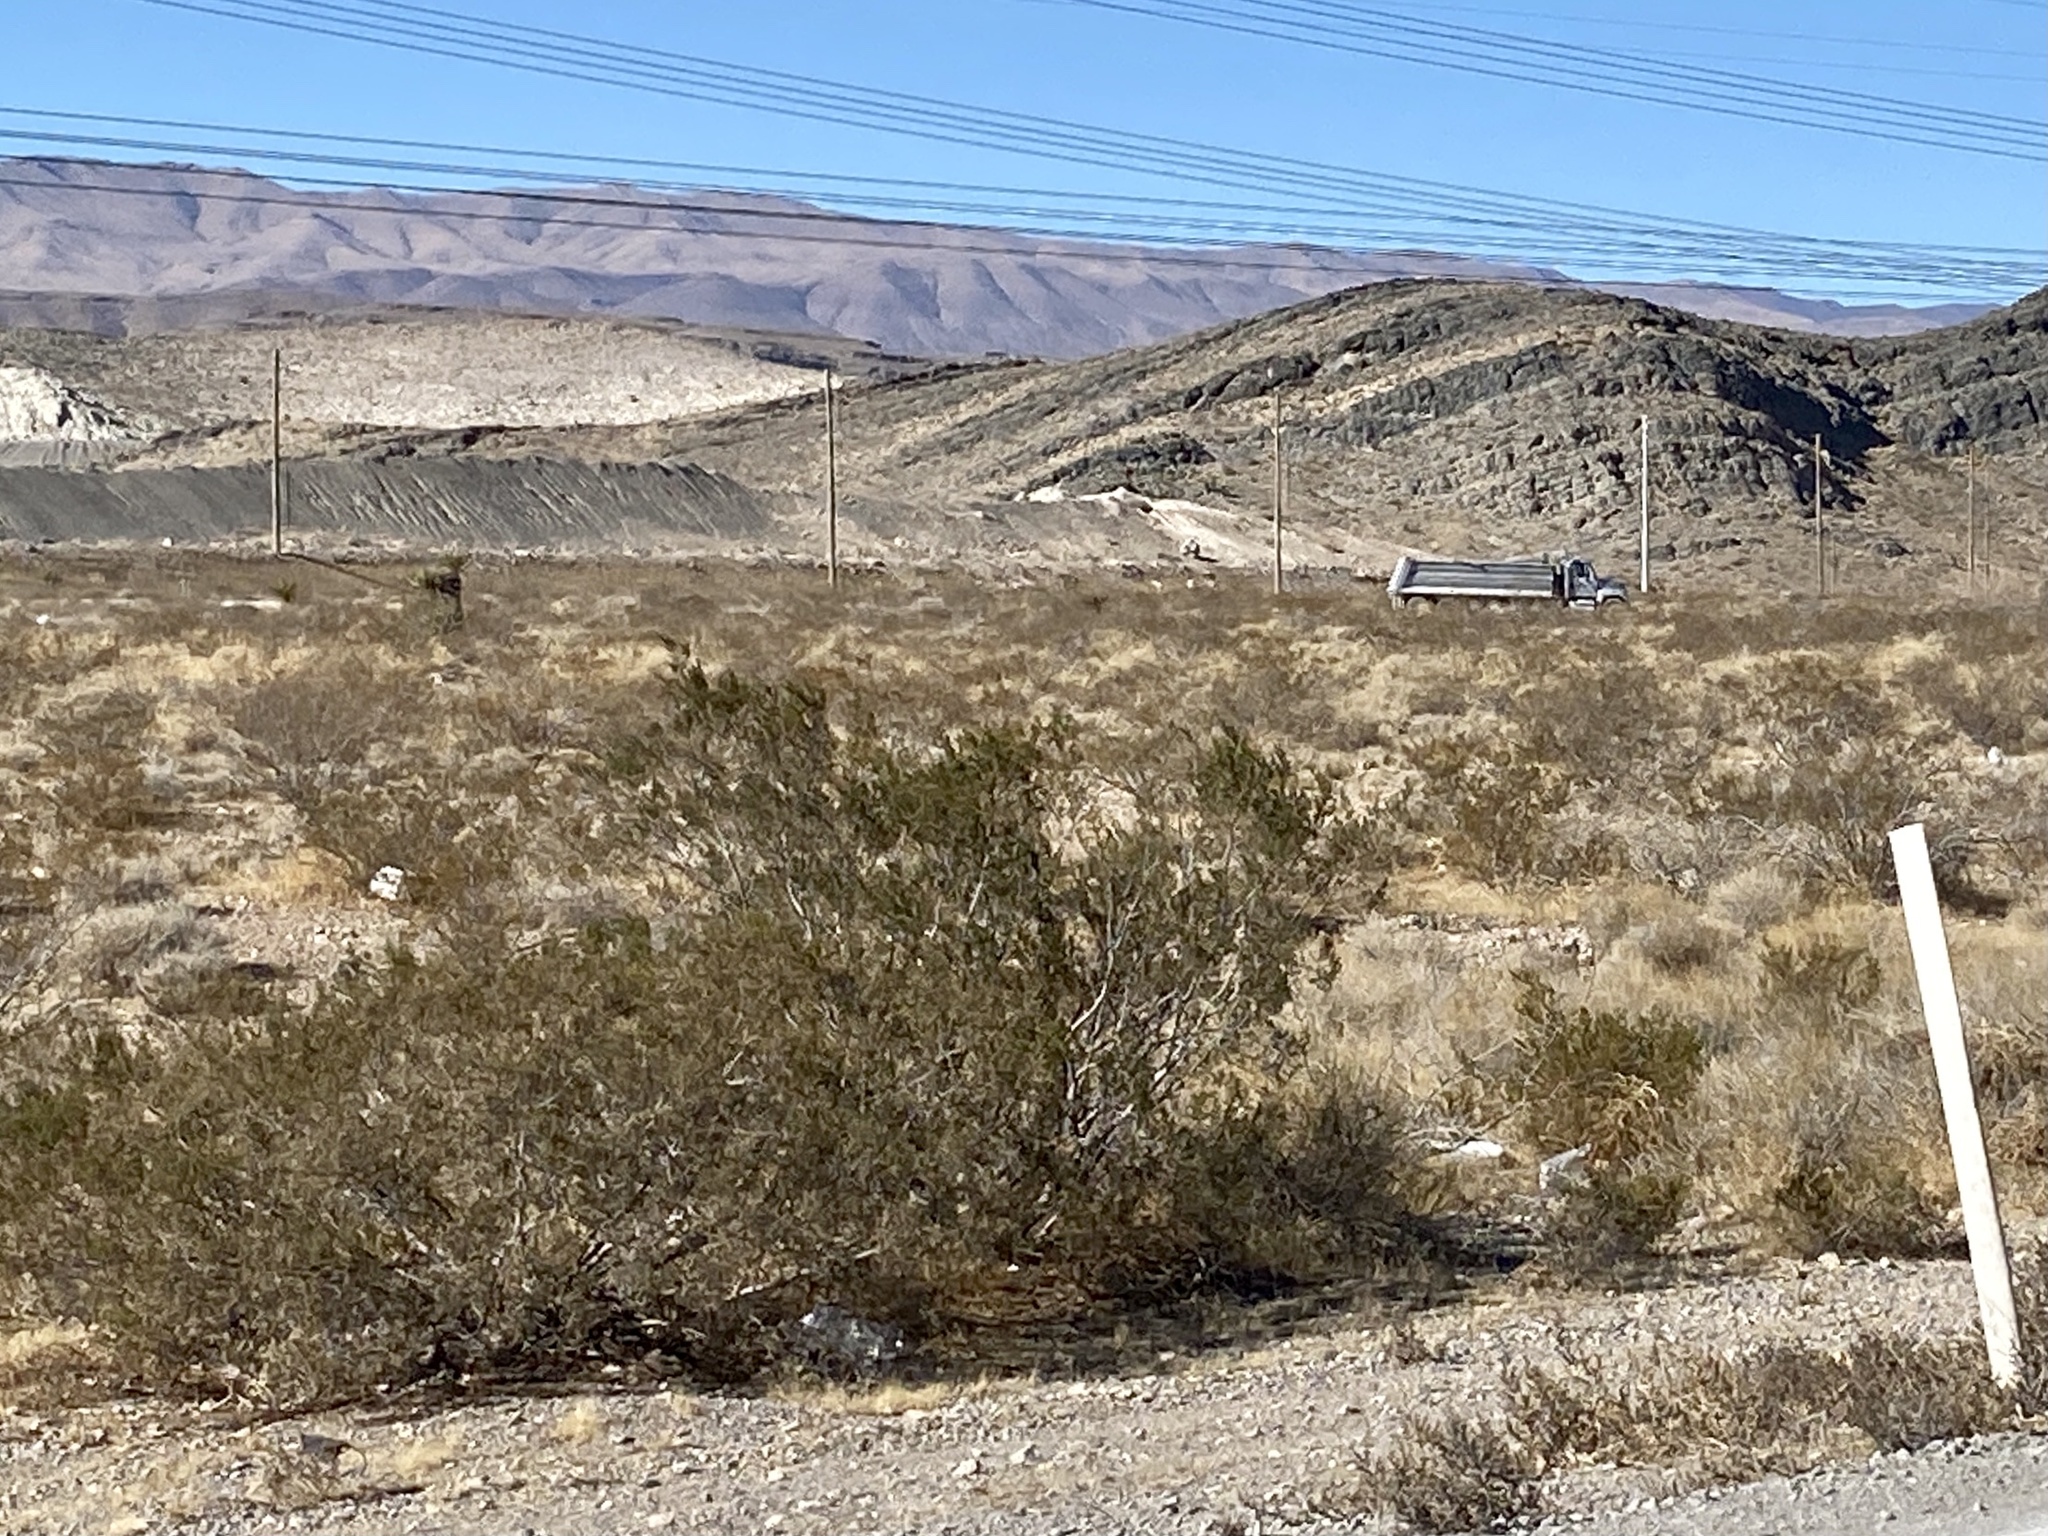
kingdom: Plantae
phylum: Tracheophyta
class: Magnoliopsida
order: Zygophyllales
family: Zygophyllaceae
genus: Larrea
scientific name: Larrea tridentata
